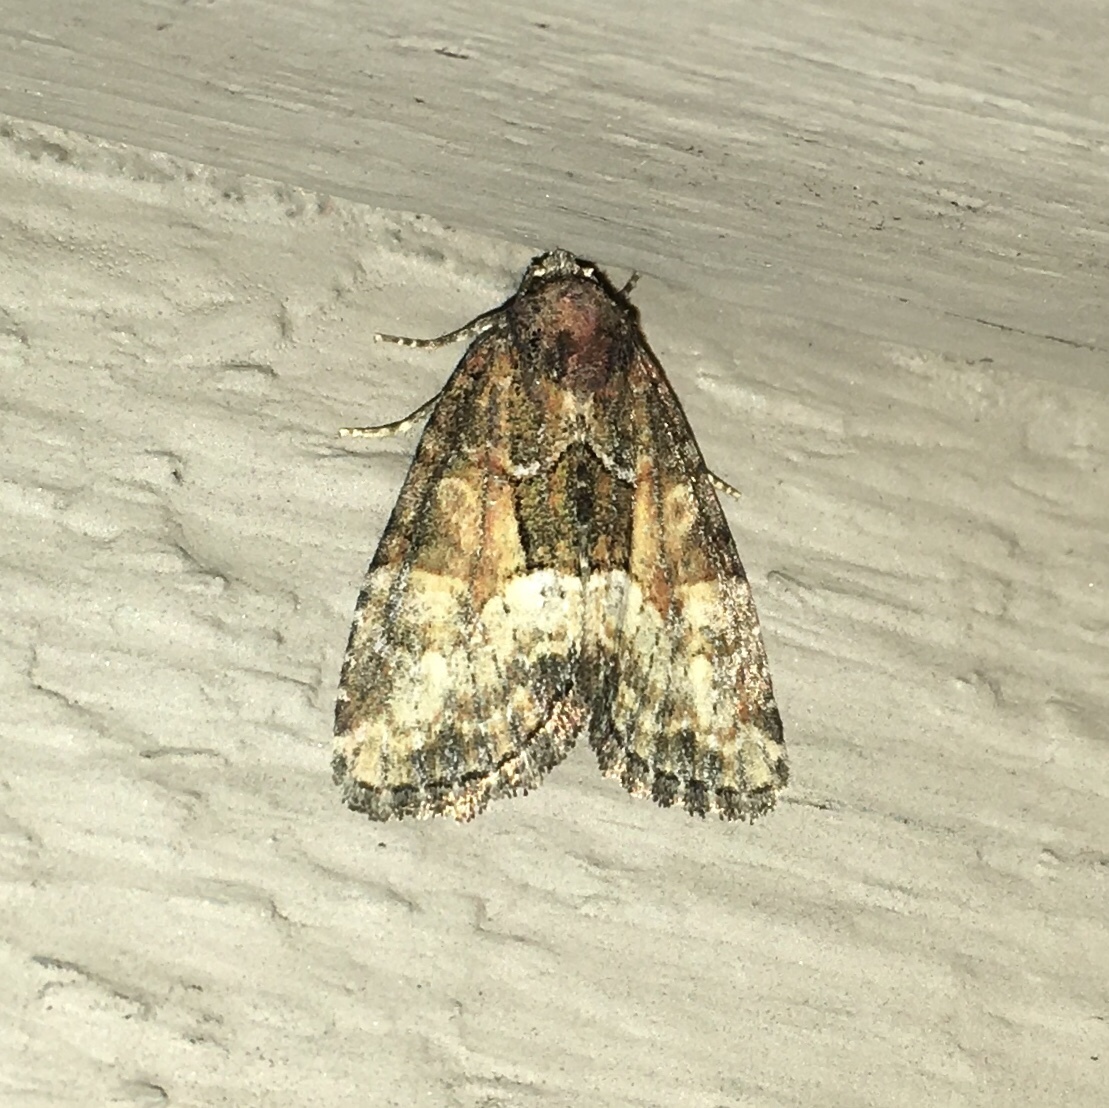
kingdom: Animalia
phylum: Arthropoda
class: Insecta
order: Lepidoptera
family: Noctuidae
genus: Neoligia
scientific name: Neoligia subjuncta
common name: Connected brocade
